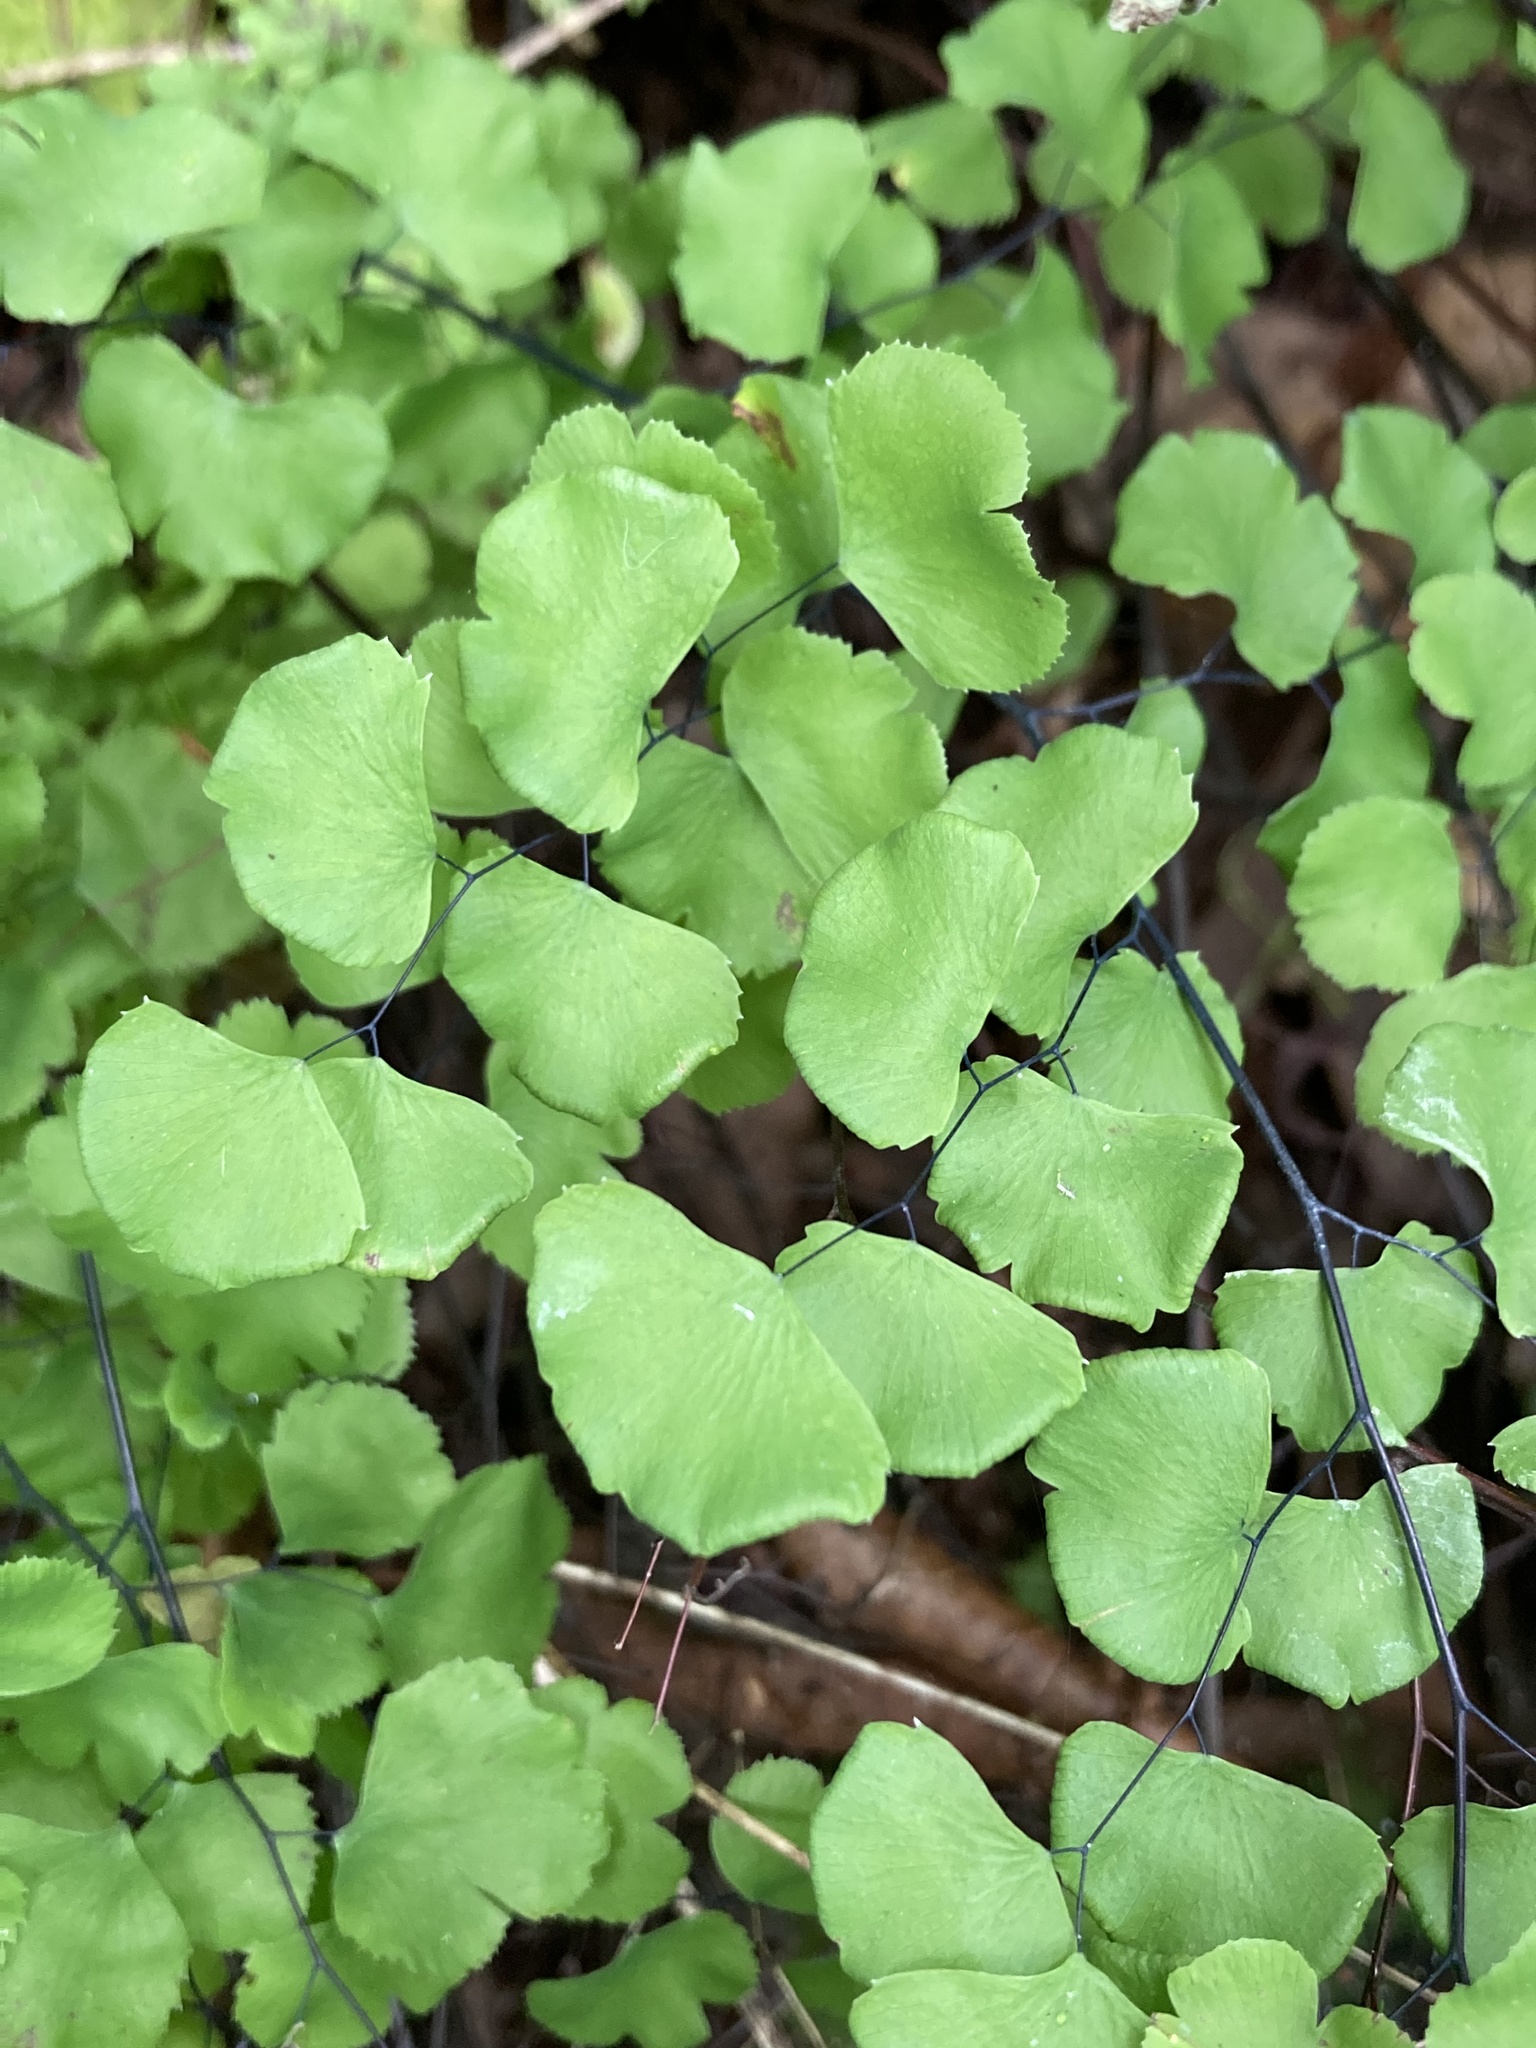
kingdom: Plantae
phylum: Tracheophyta
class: Polypodiopsida
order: Polypodiales
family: Pteridaceae
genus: Adiantum
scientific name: Adiantum jordanii
